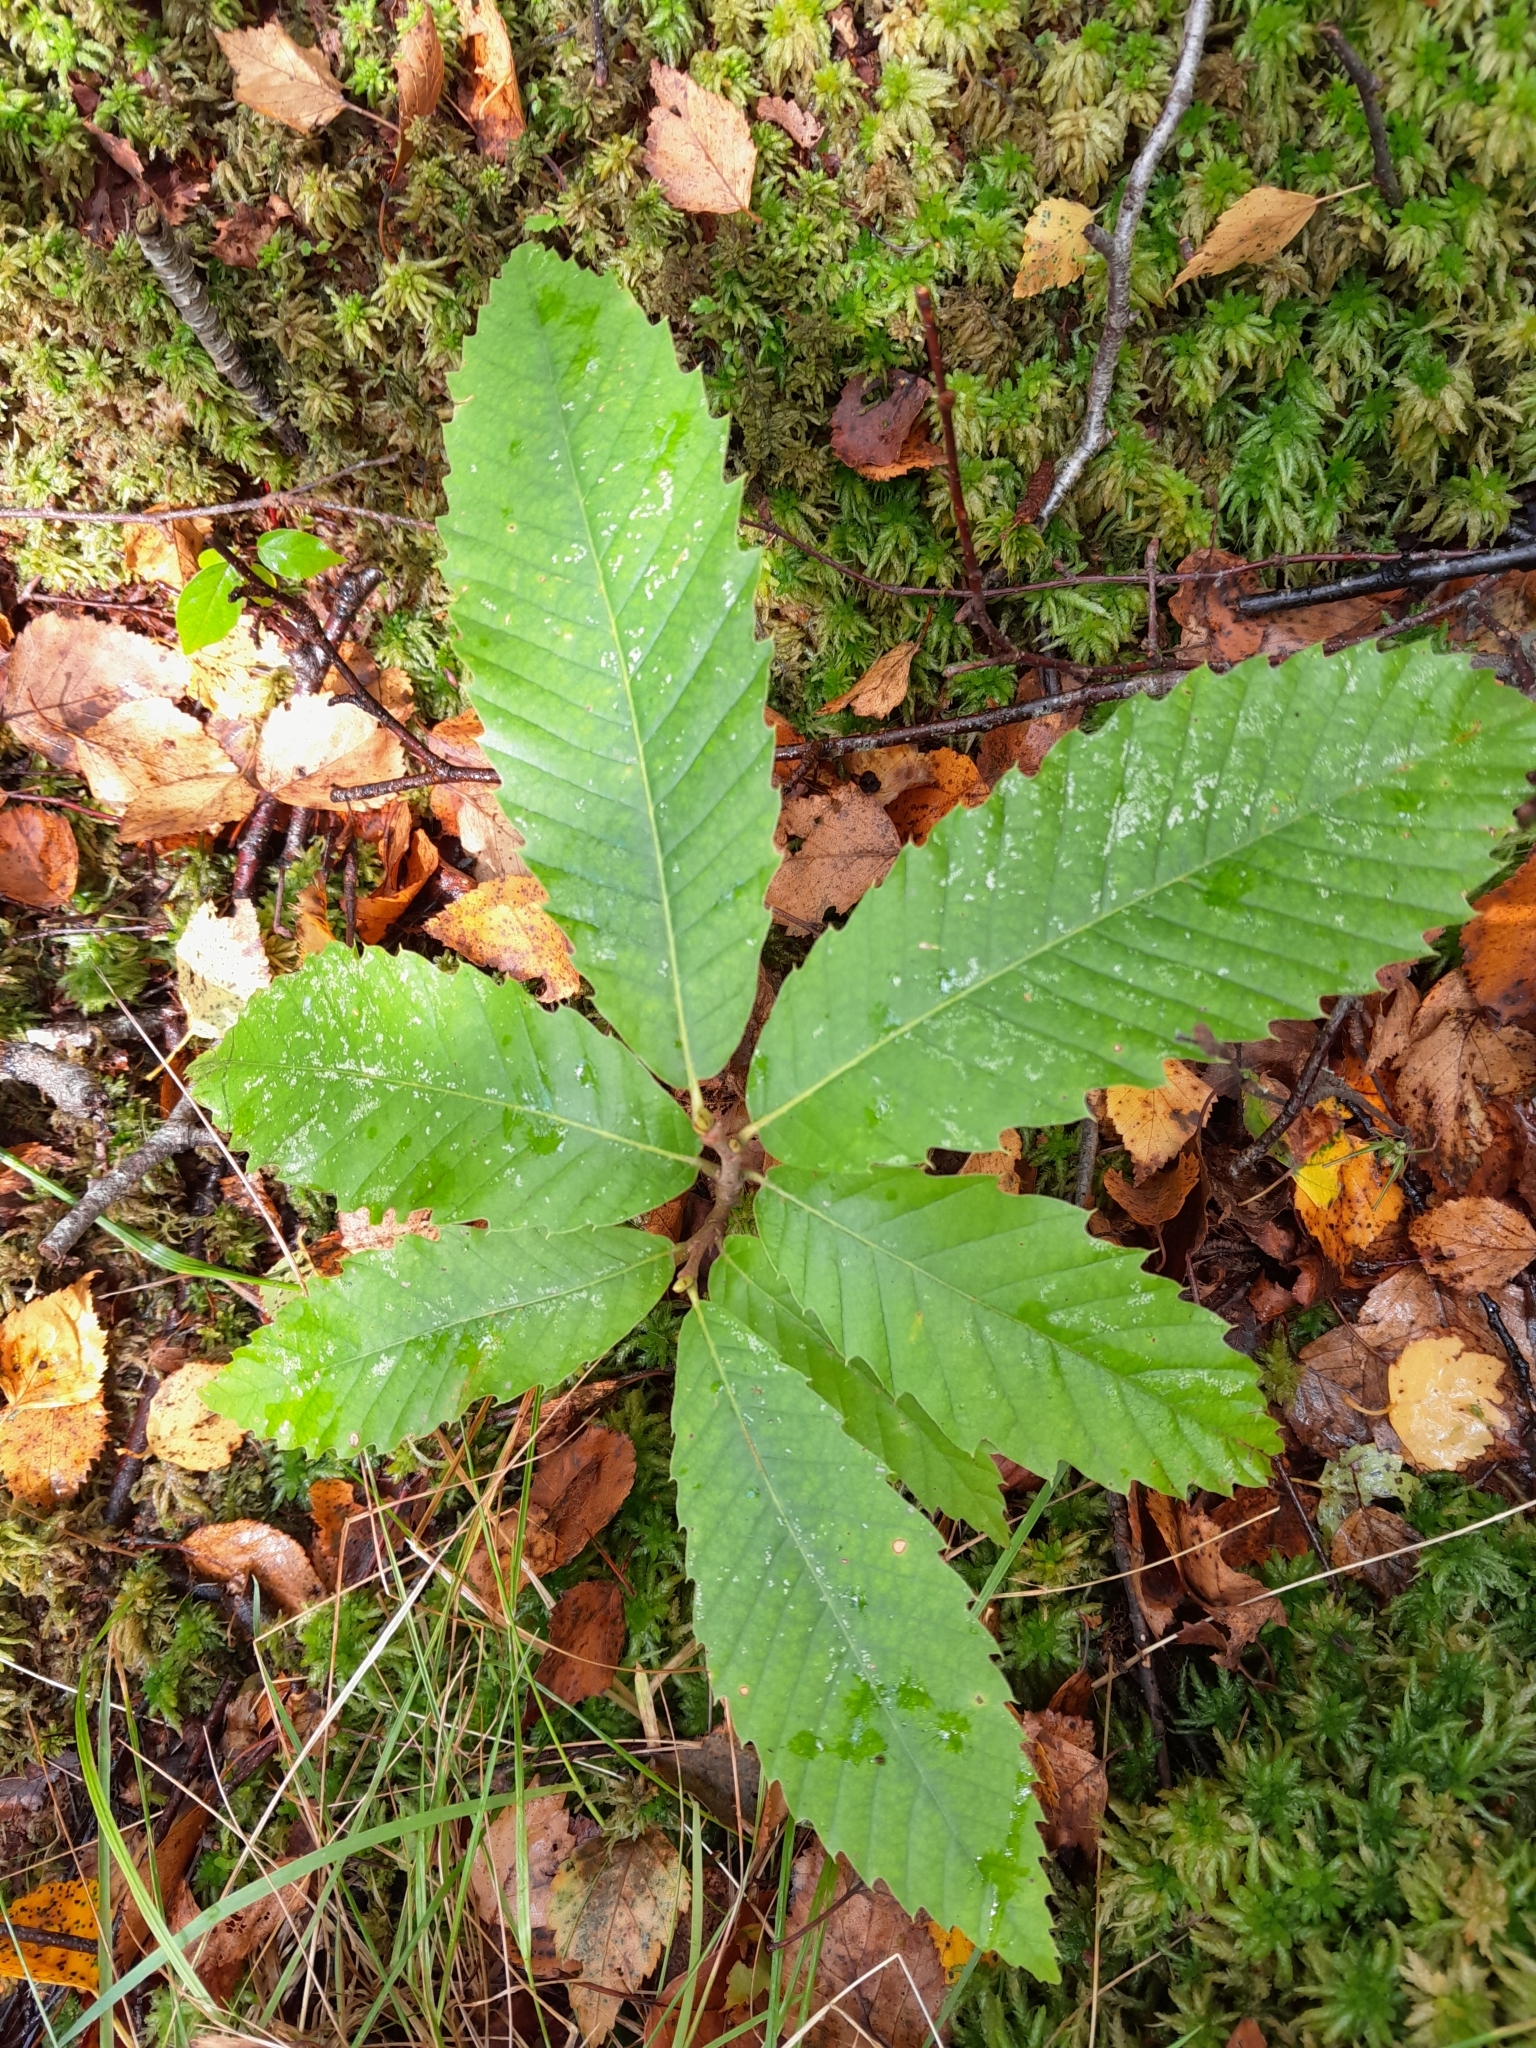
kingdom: Plantae
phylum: Tracheophyta
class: Magnoliopsida
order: Fagales
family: Fagaceae
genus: Castanea
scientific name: Castanea sativa
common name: Sweet chestnut
